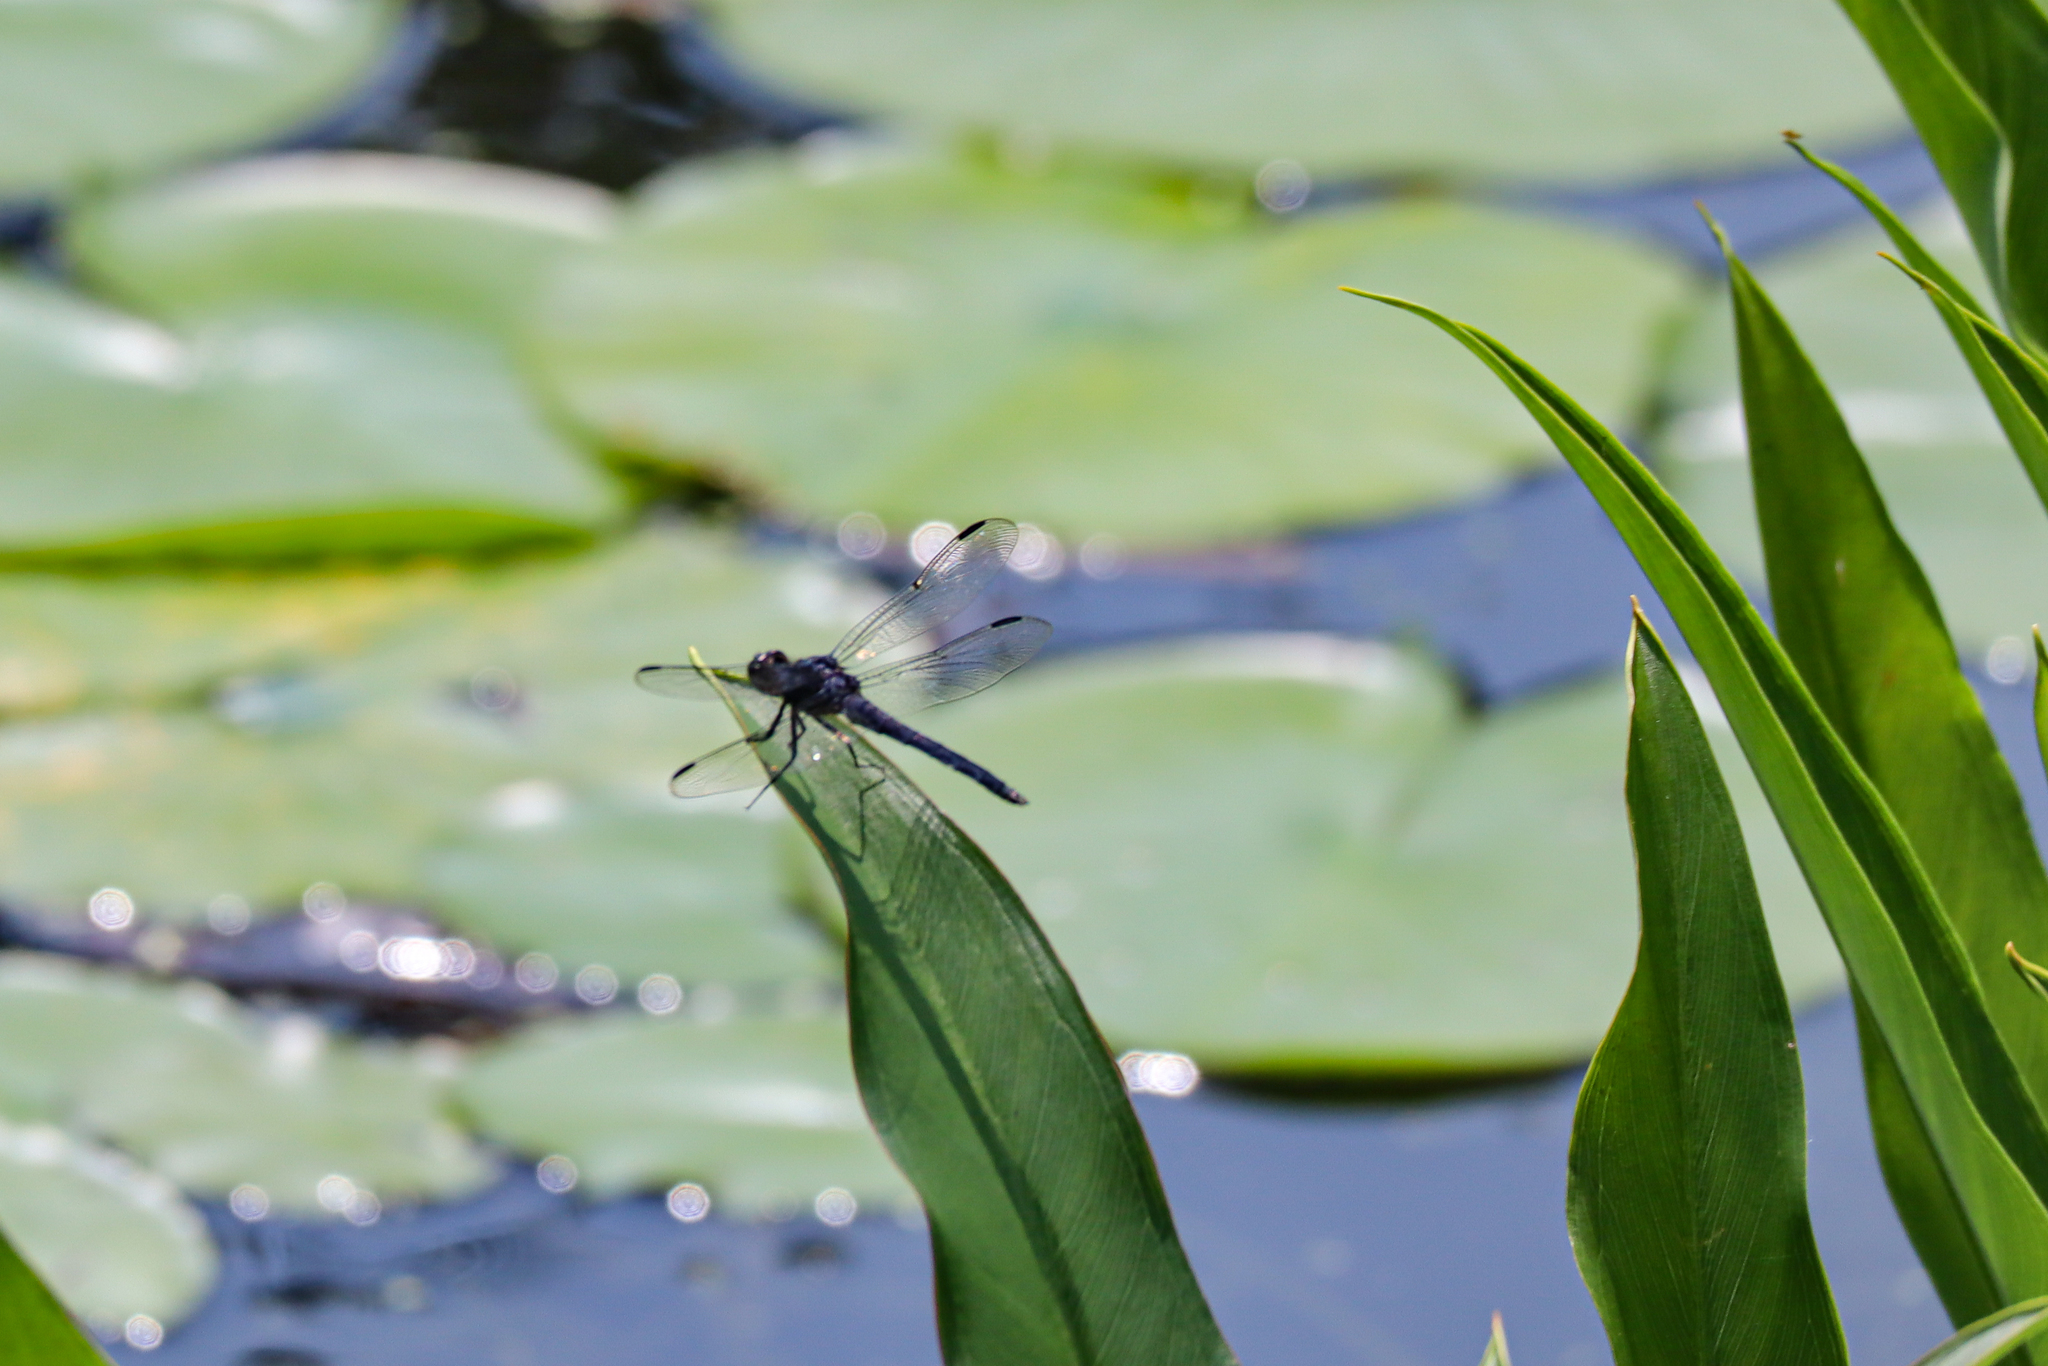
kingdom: Animalia
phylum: Arthropoda
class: Insecta
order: Odonata
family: Libellulidae
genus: Libellula
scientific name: Libellula incesta
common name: Slaty skimmer
